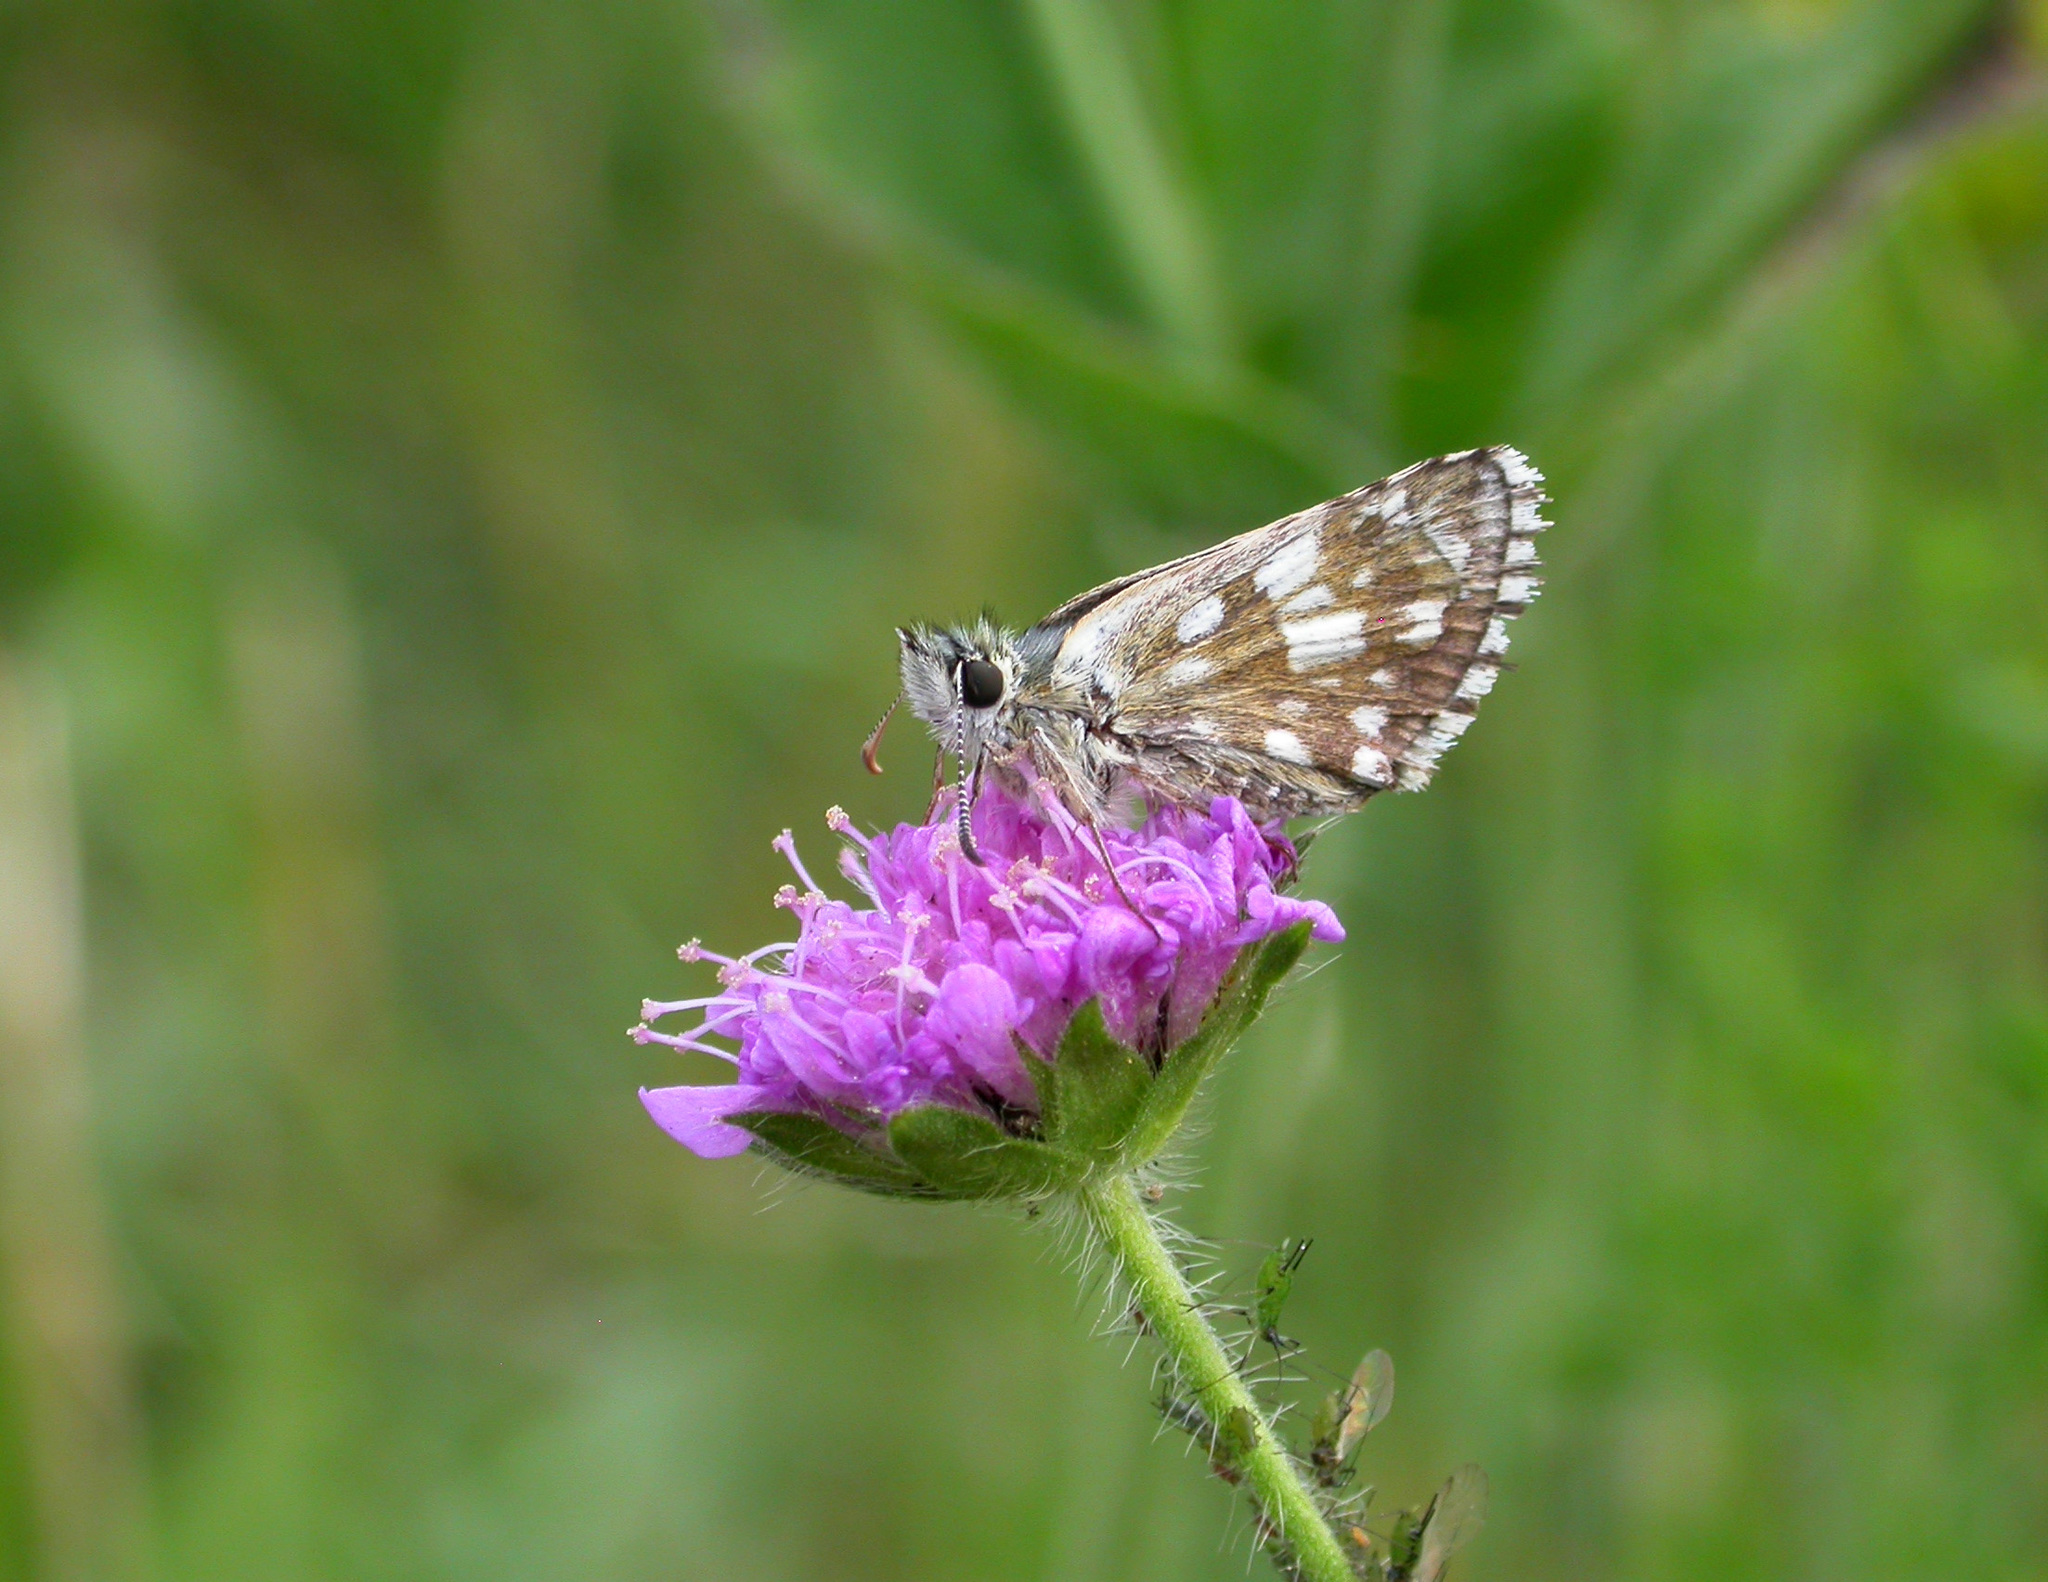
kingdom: Animalia
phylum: Arthropoda
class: Insecta
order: Lepidoptera
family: Hesperiidae
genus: Pyrgus
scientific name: Pyrgus serratulae
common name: Olive skipper
